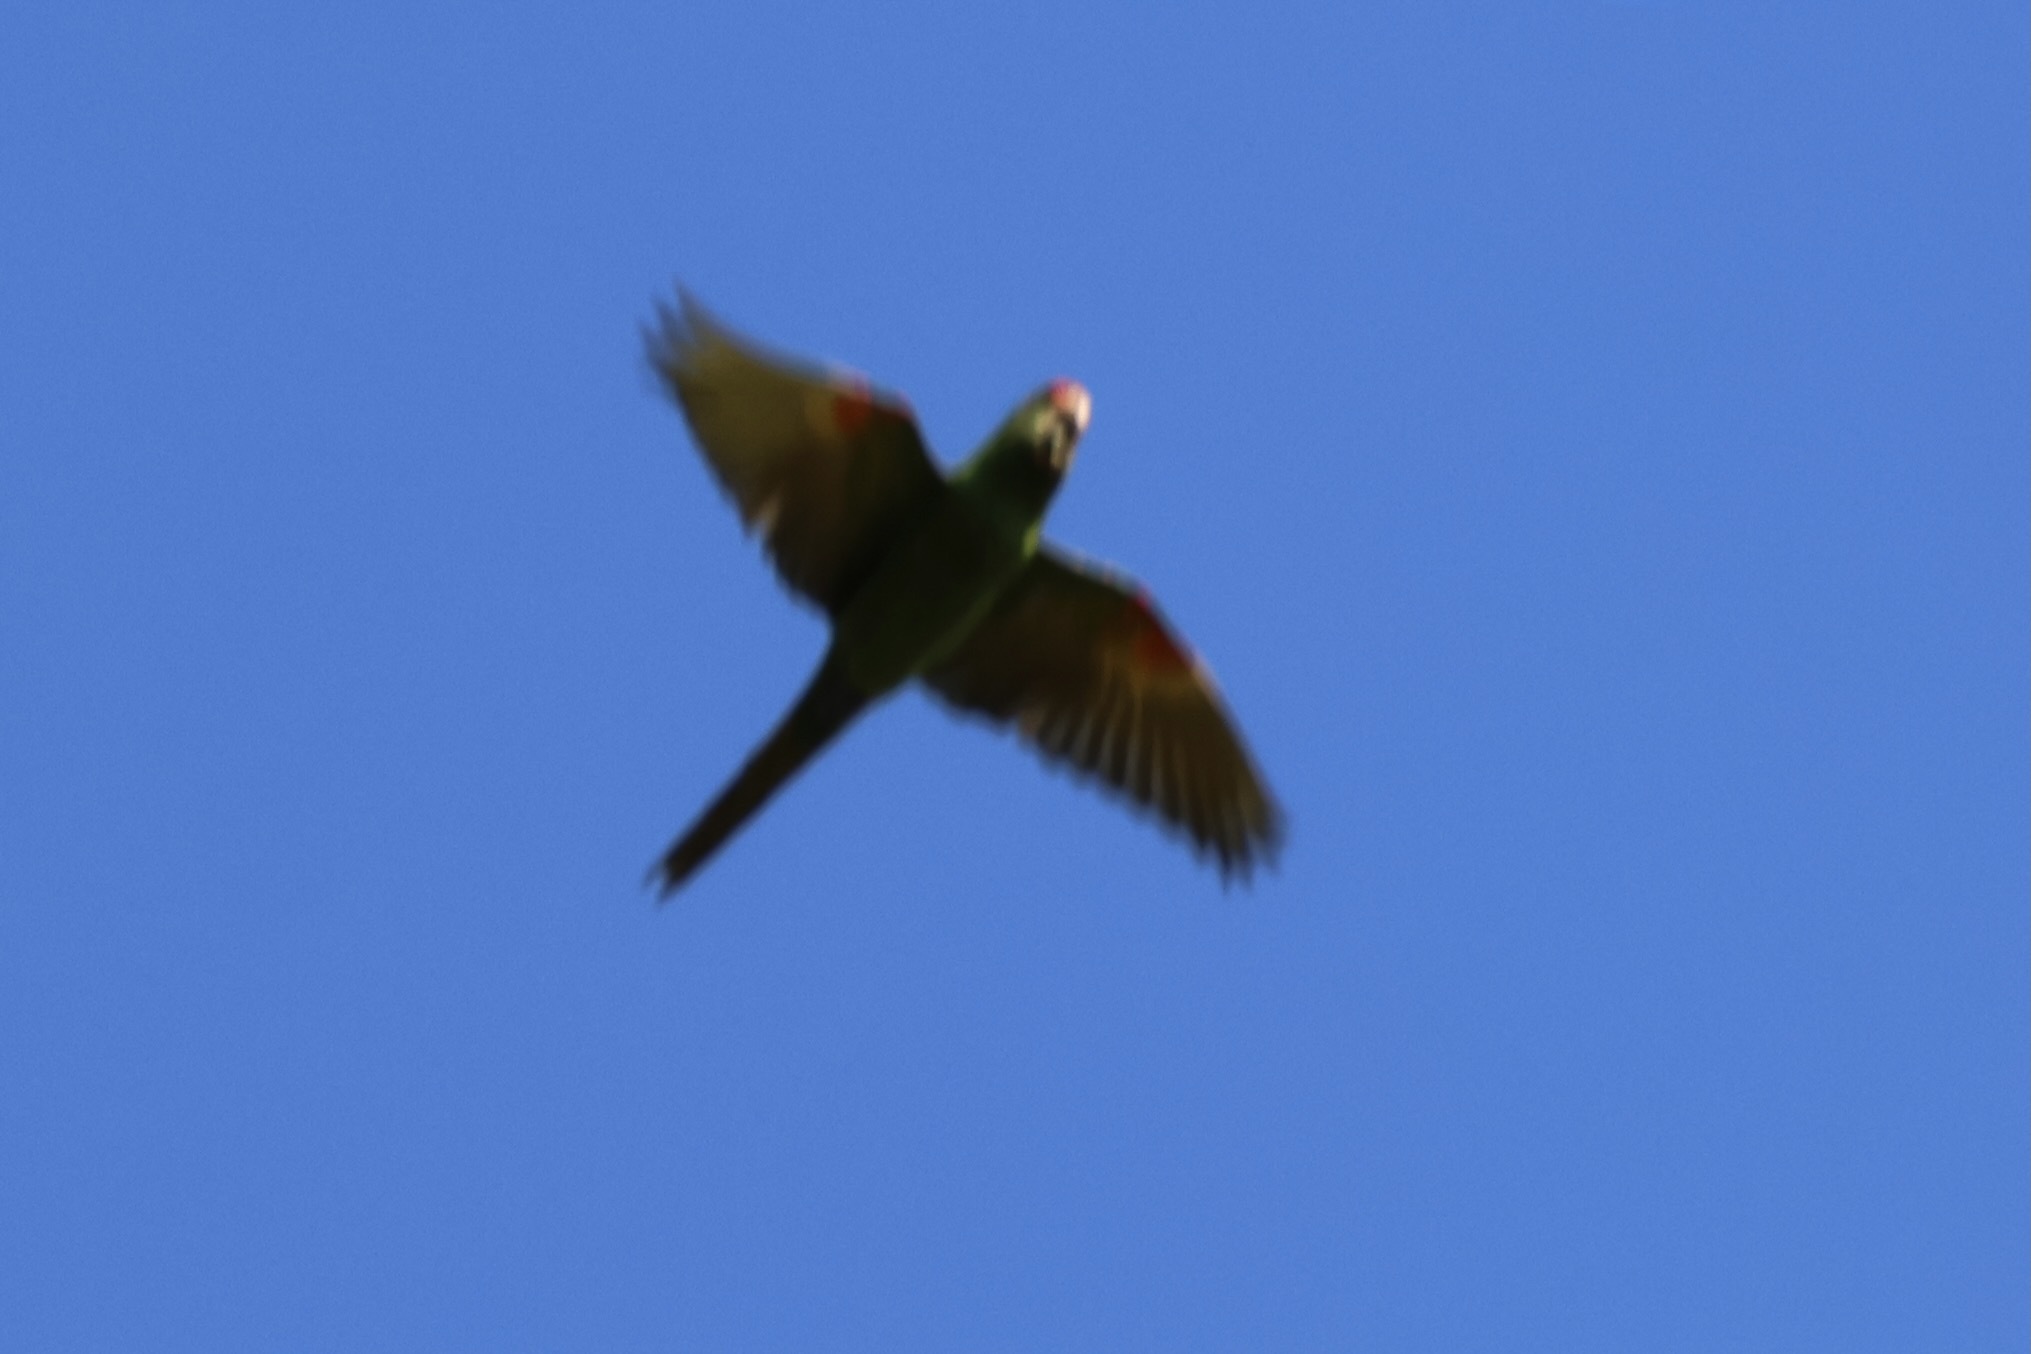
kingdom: Animalia
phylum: Chordata
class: Aves
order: Psittaciformes
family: Psittacidae
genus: Aratinga
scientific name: Aratinga finschi
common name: Crimson-fronted parakeet
